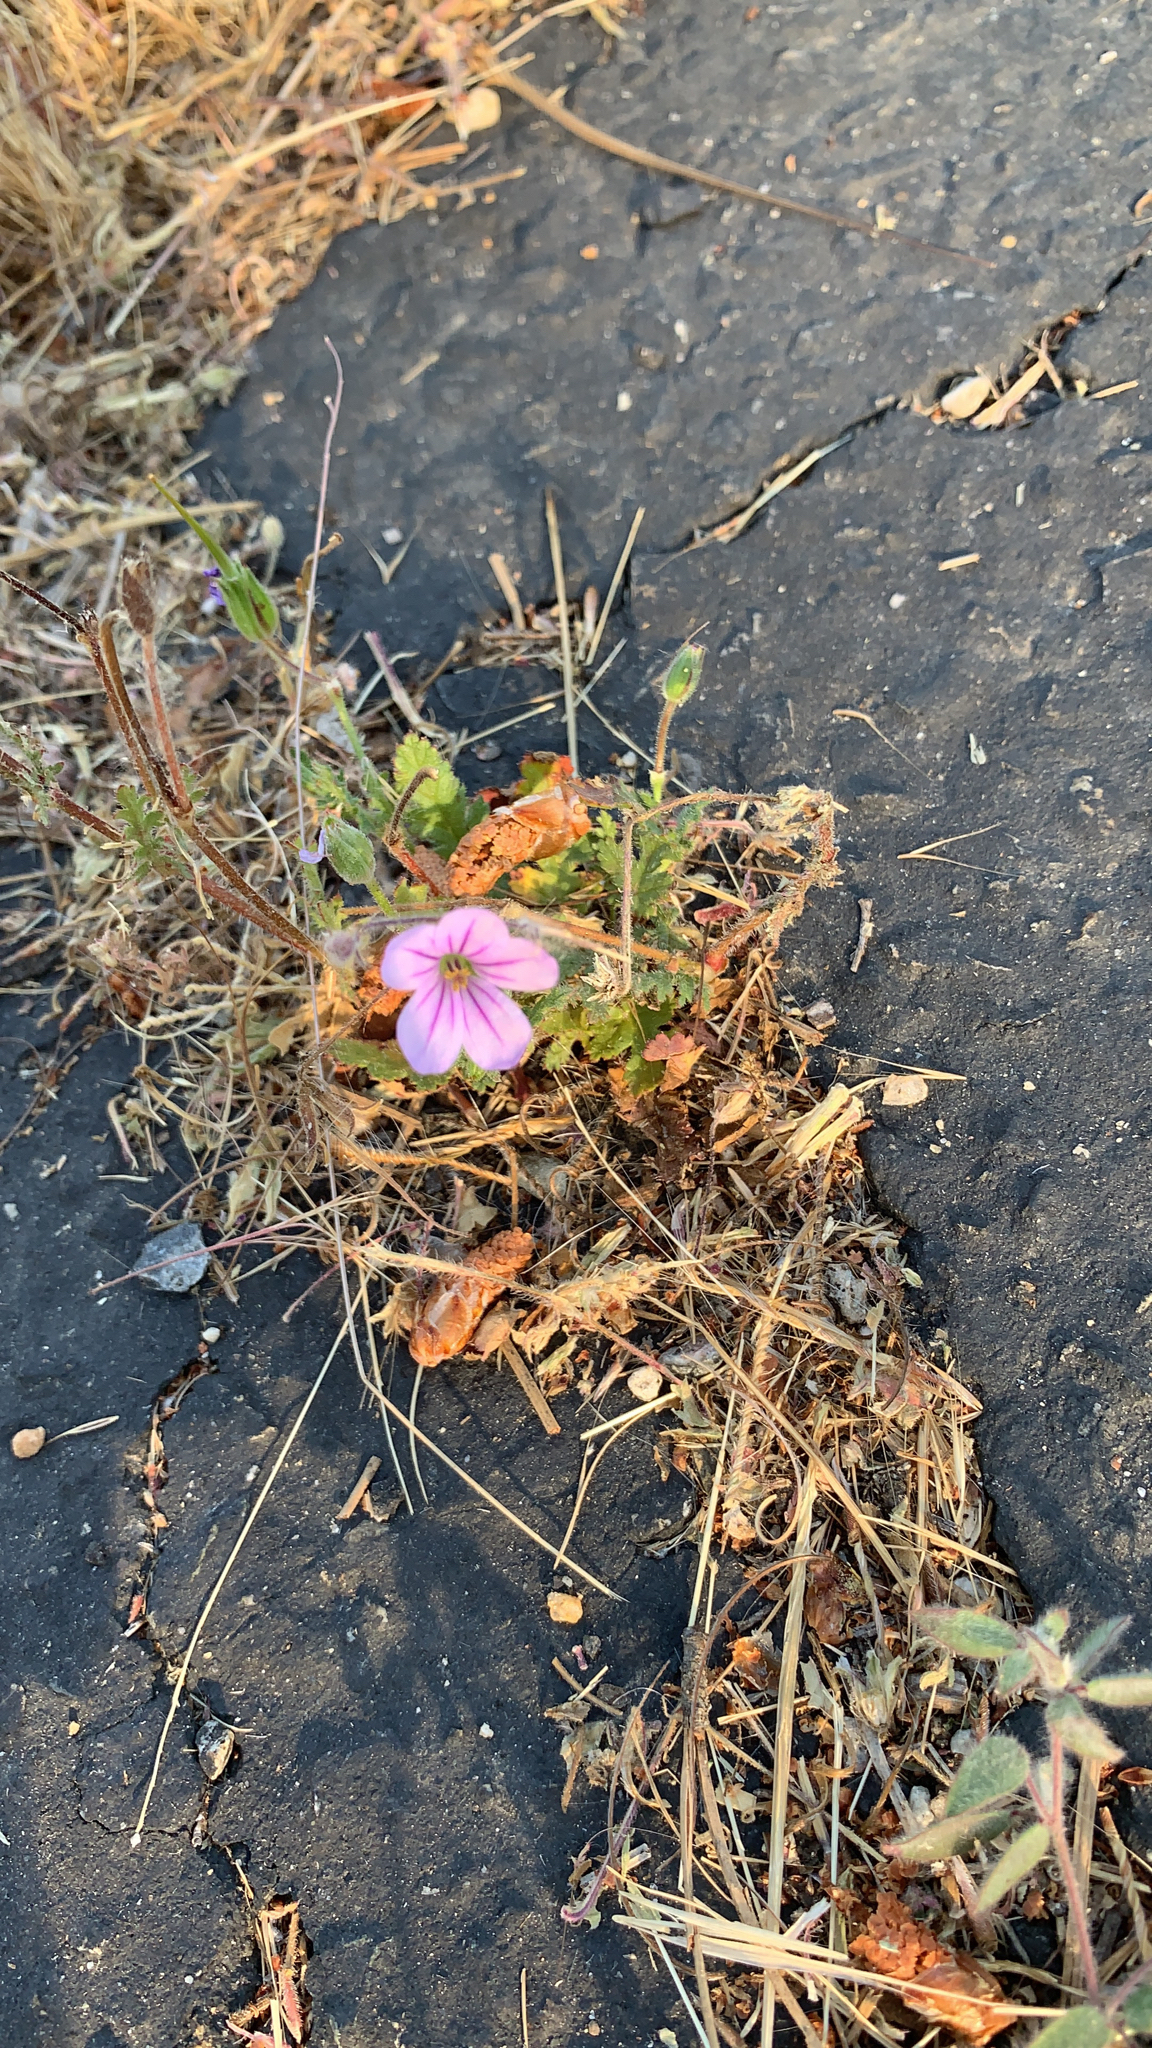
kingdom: Plantae
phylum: Tracheophyta
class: Magnoliopsida
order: Geraniales
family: Geraniaceae
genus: Erodium
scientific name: Erodium botrys
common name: Mediterranean stork's-bill
